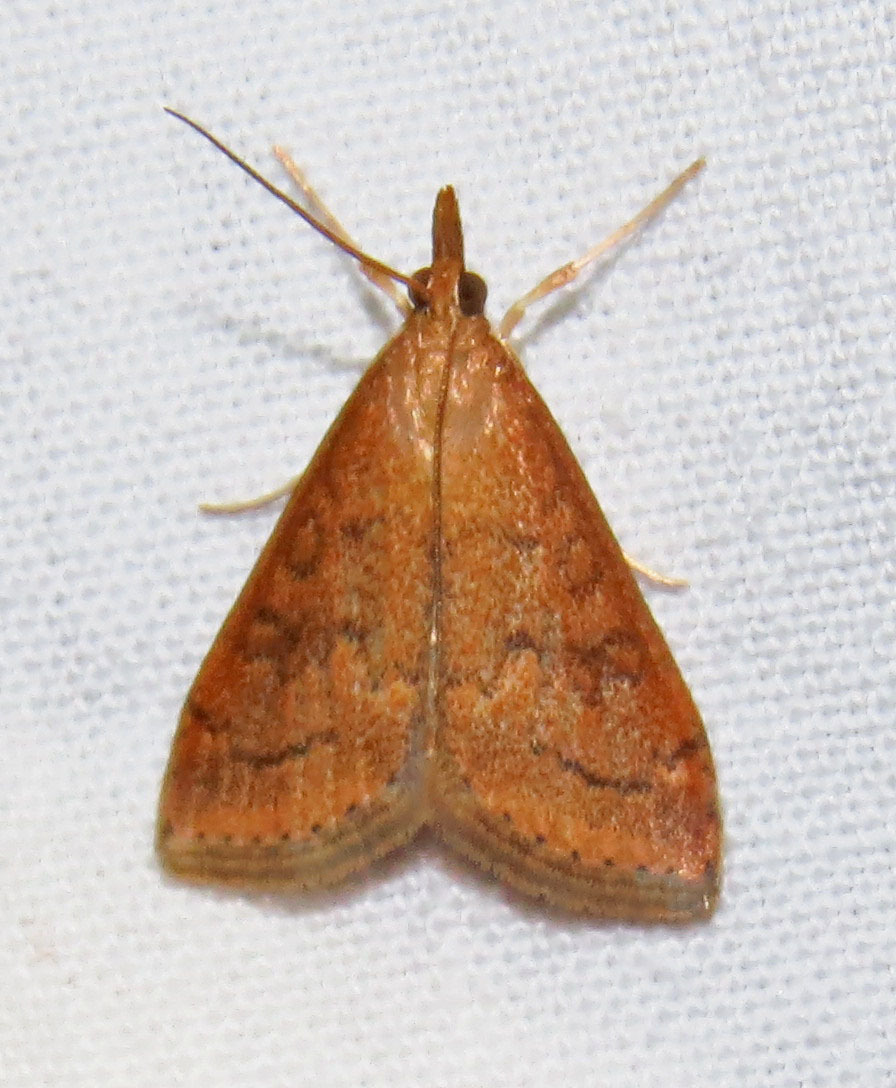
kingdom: Animalia
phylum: Arthropoda
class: Insecta
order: Lepidoptera
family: Crambidae
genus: Udea
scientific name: Udea rubigalis
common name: Celery leaftier moth
